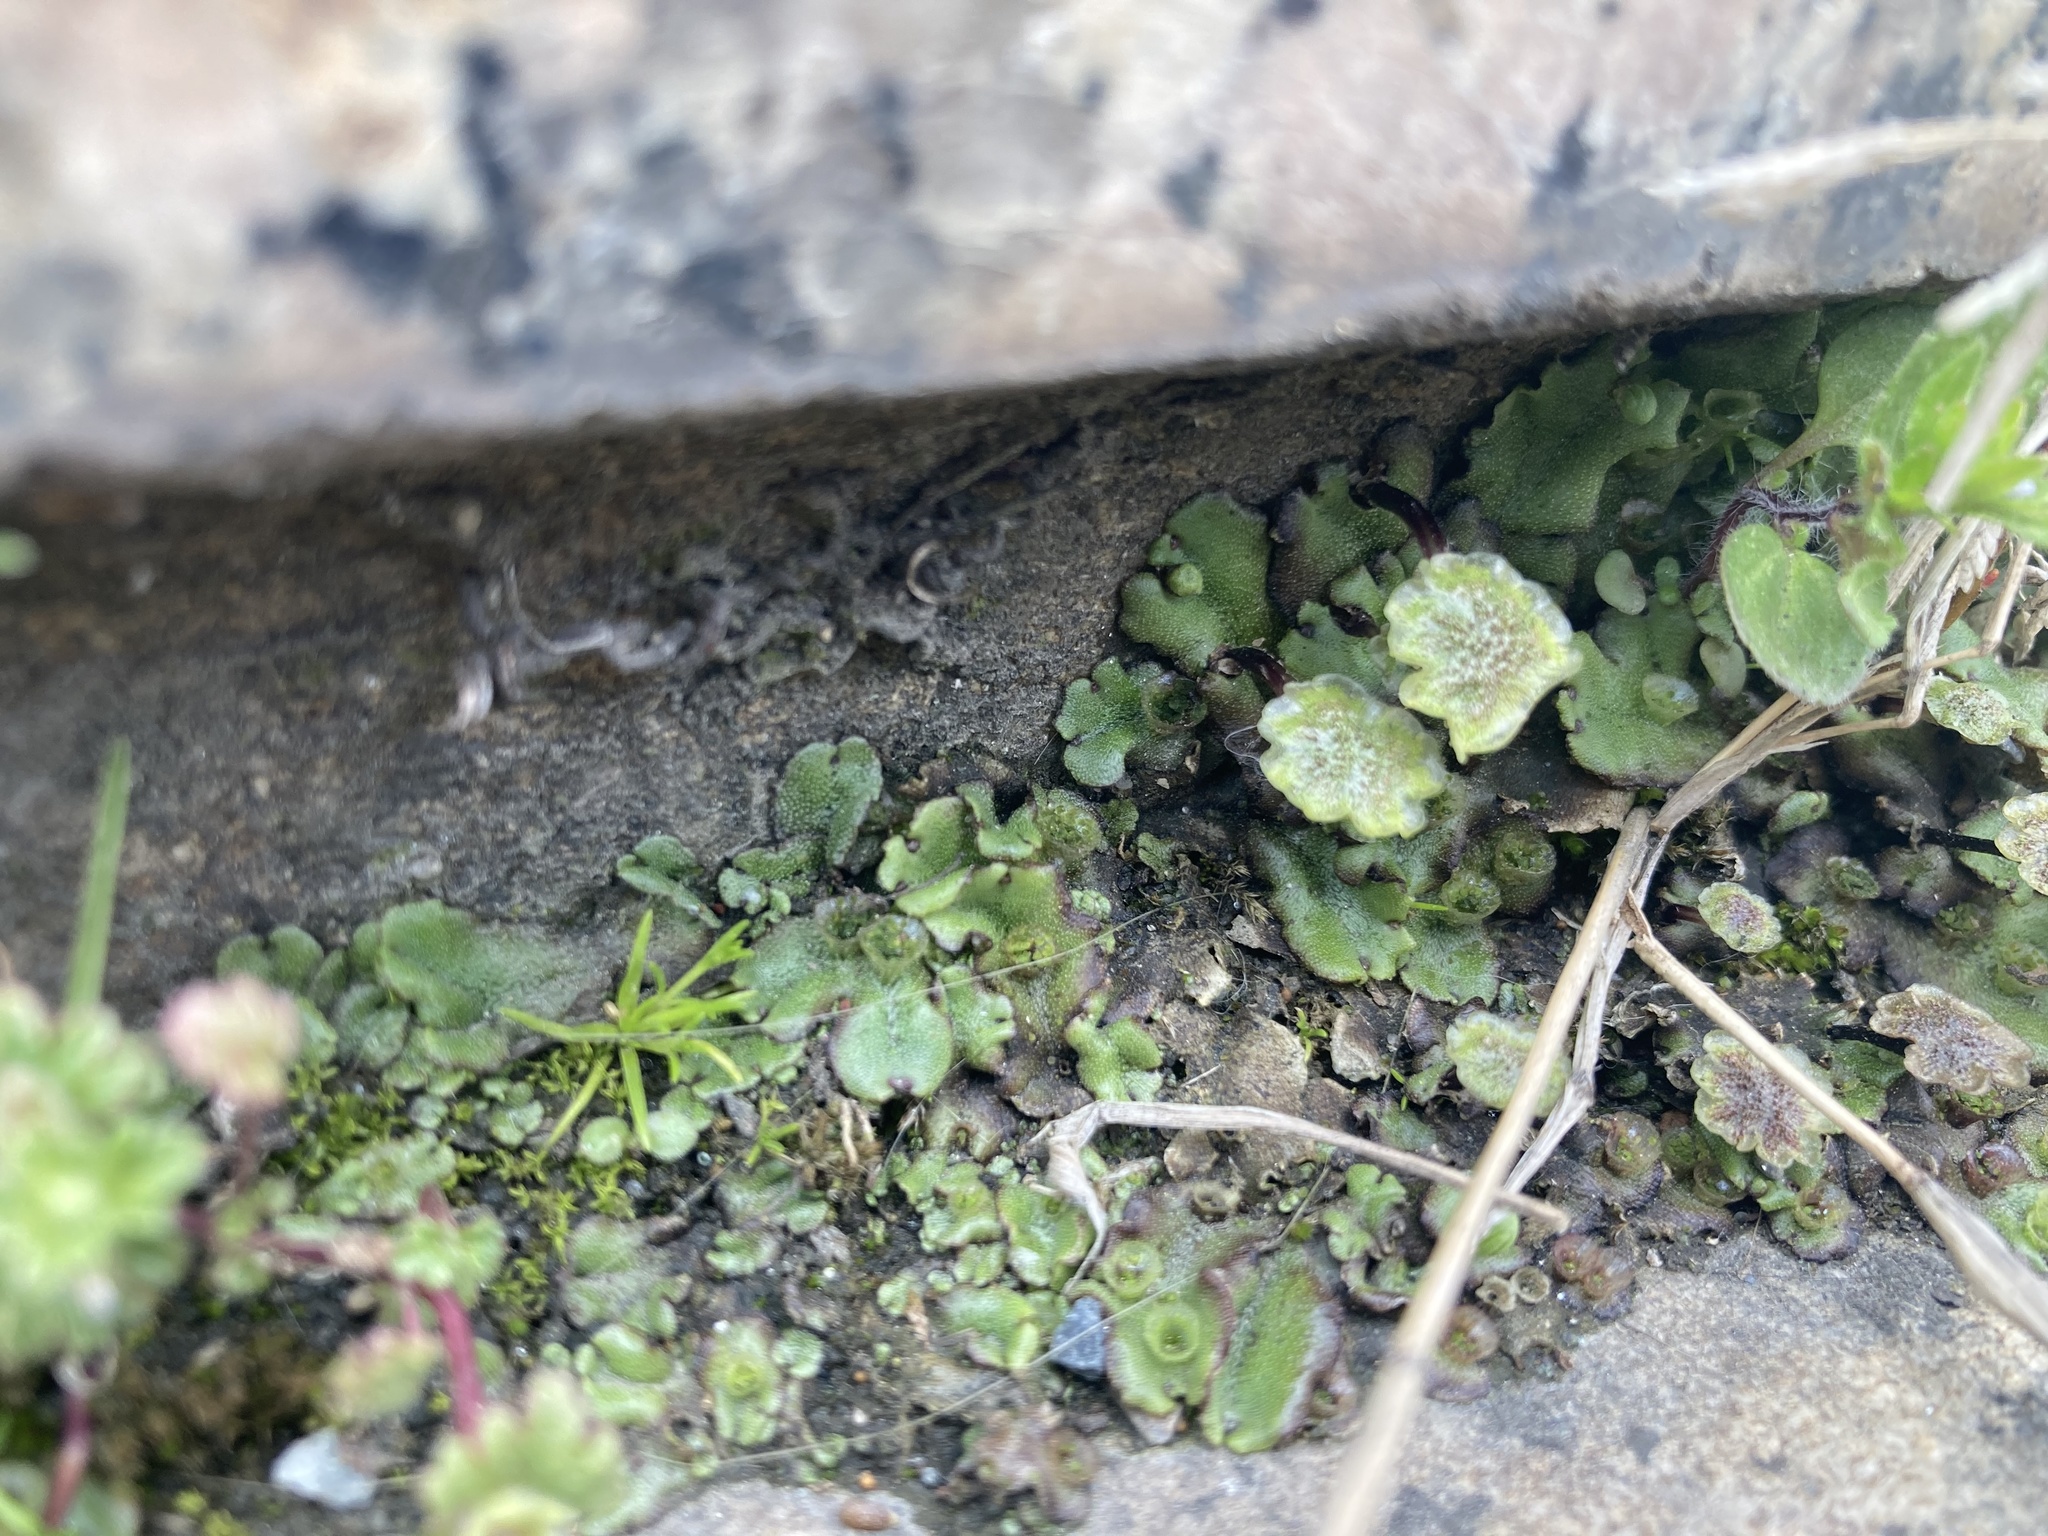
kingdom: Plantae
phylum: Marchantiophyta
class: Marchantiopsida
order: Marchantiales
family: Marchantiaceae
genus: Marchantia
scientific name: Marchantia polymorpha
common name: Common liverwort
